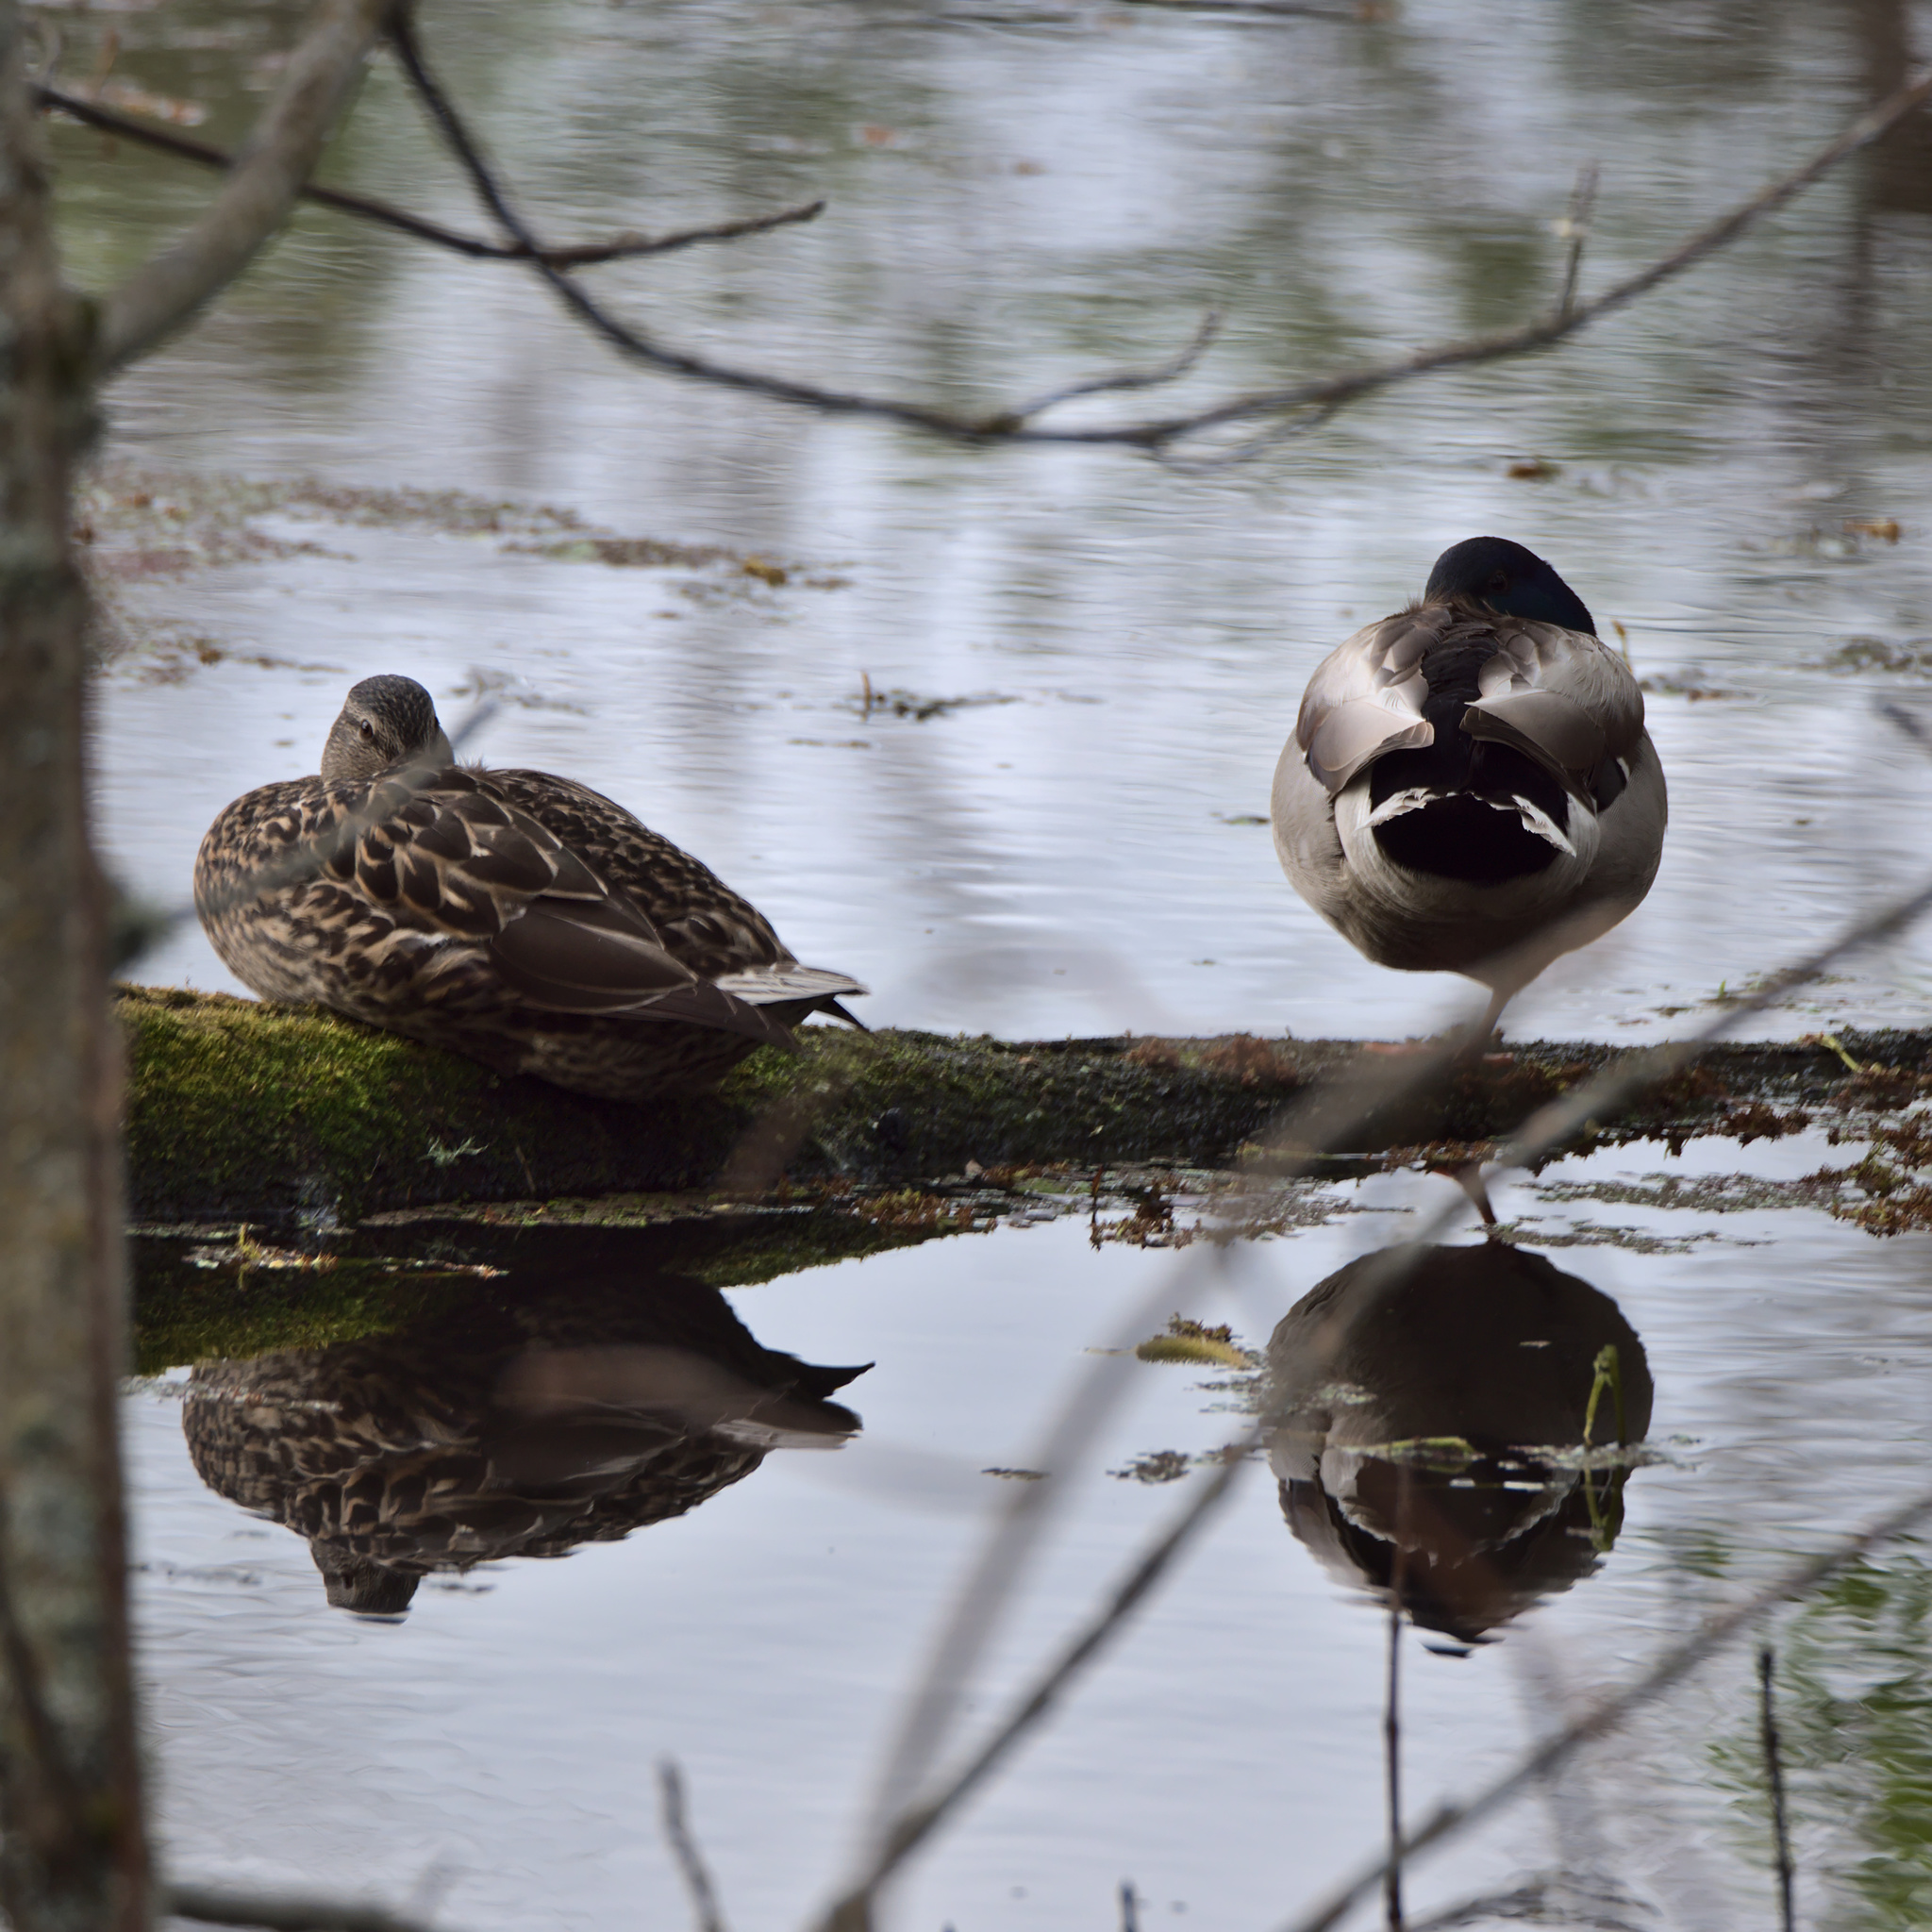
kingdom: Animalia
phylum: Chordata
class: Aves
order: Anseriformes
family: Anatidae
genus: Anas
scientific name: Anas platyrhynchos
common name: Mallard
